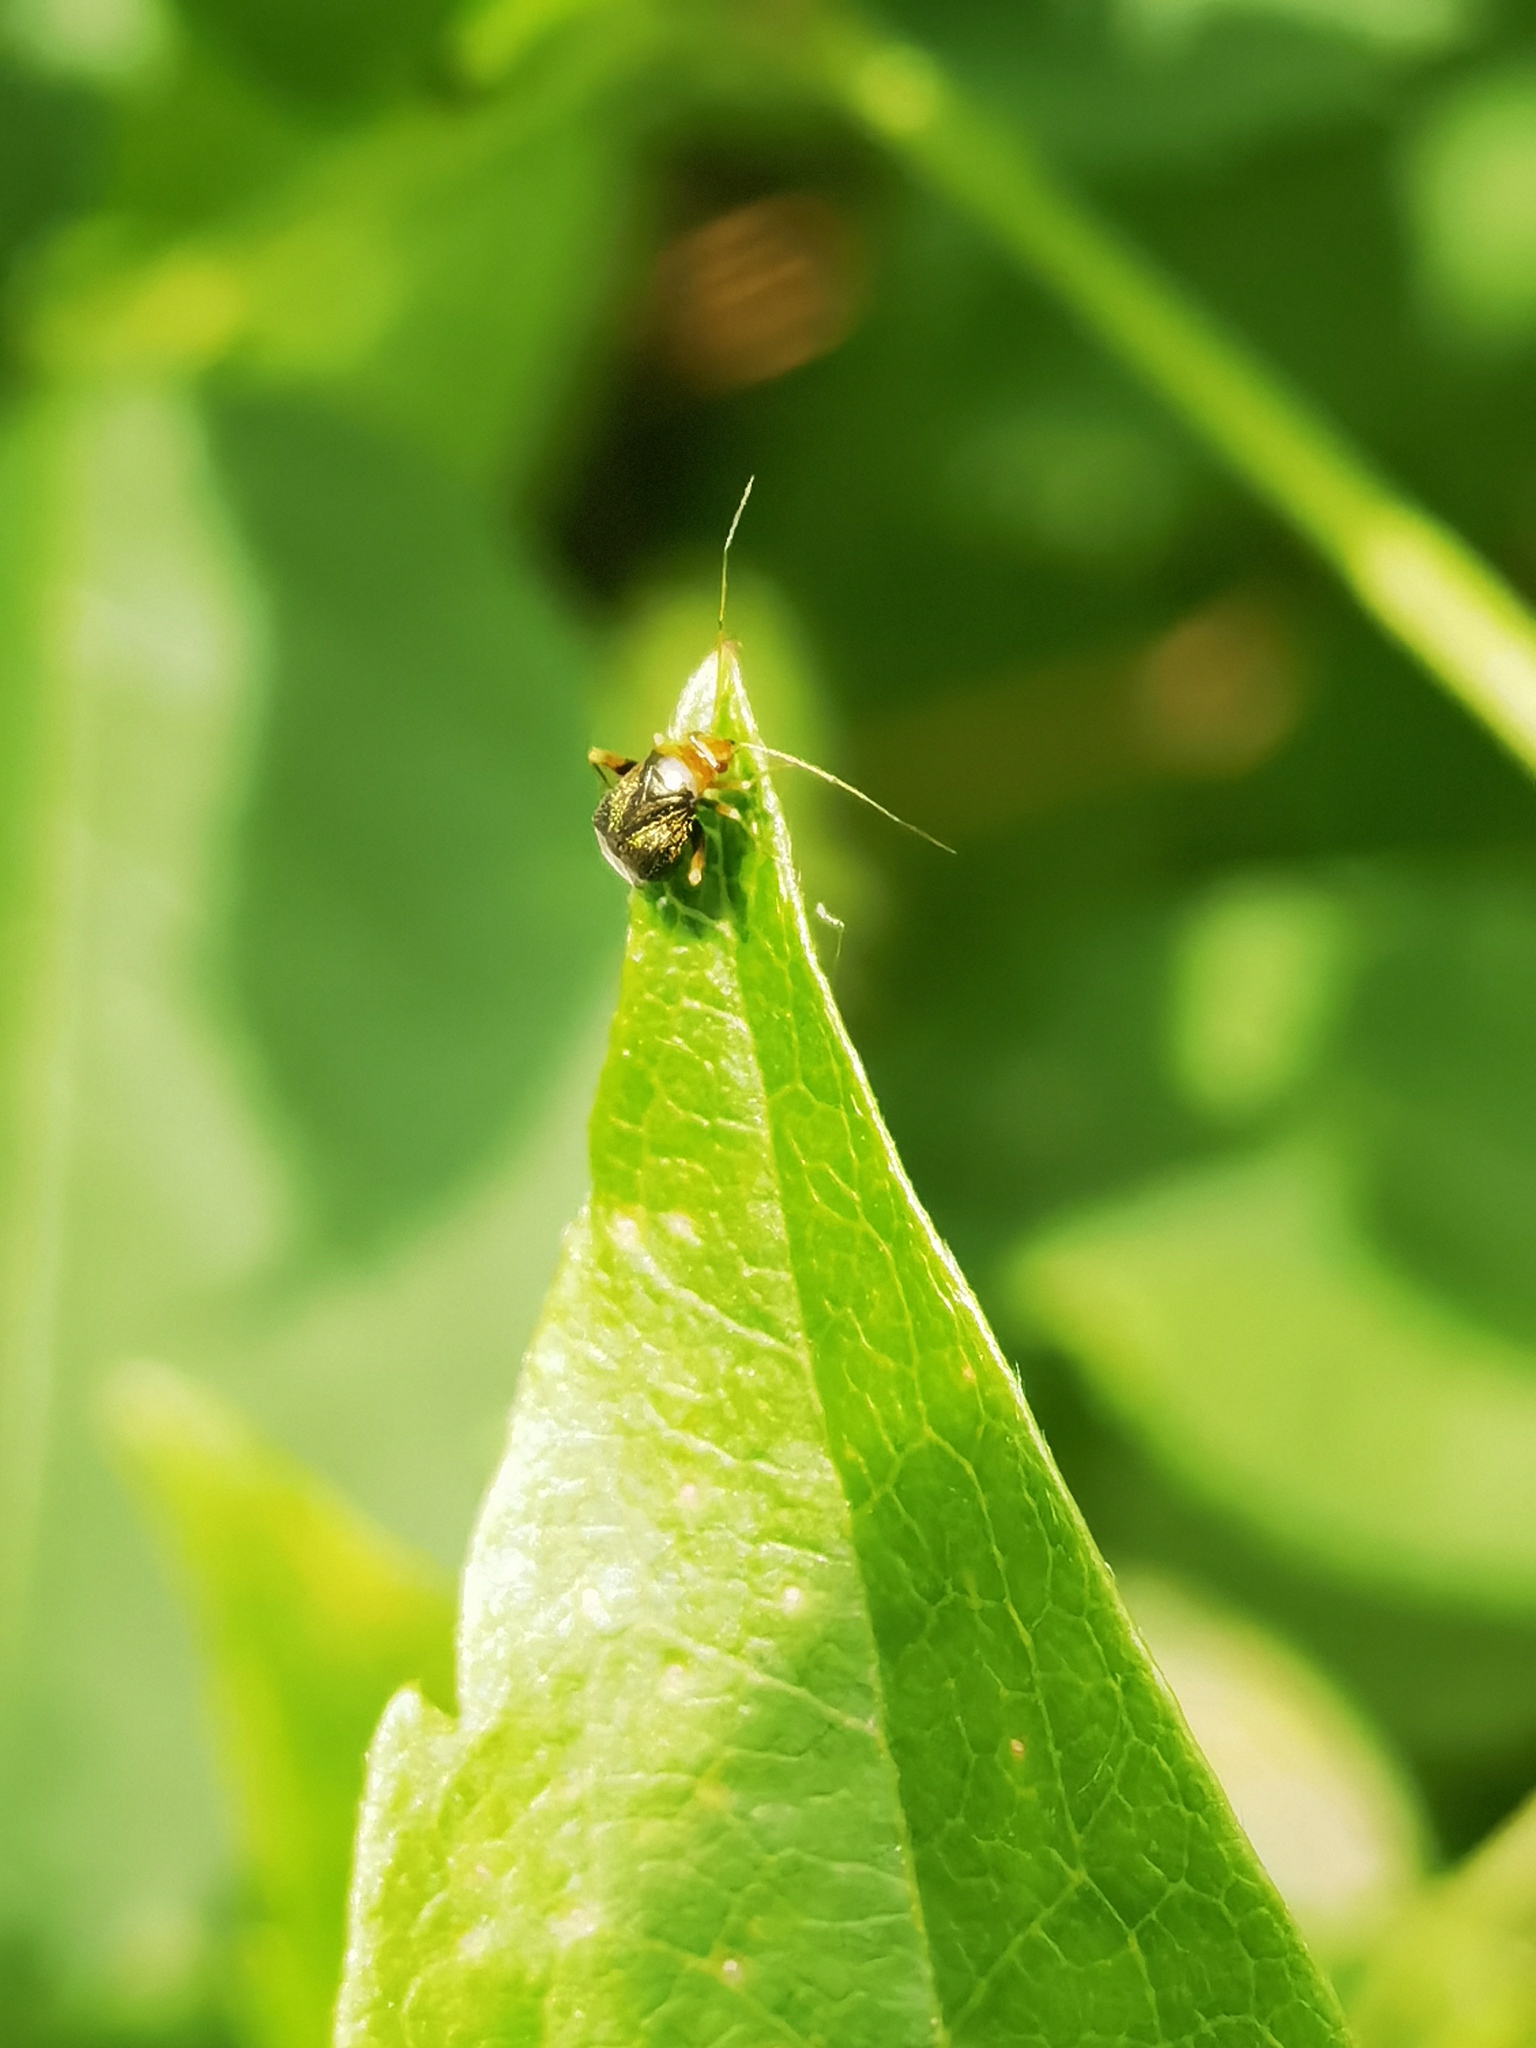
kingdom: Animalia
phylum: Arthropoda
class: Insecta
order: Hemiptera
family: Miridae
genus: Halticus
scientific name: Halticus luteicollis
